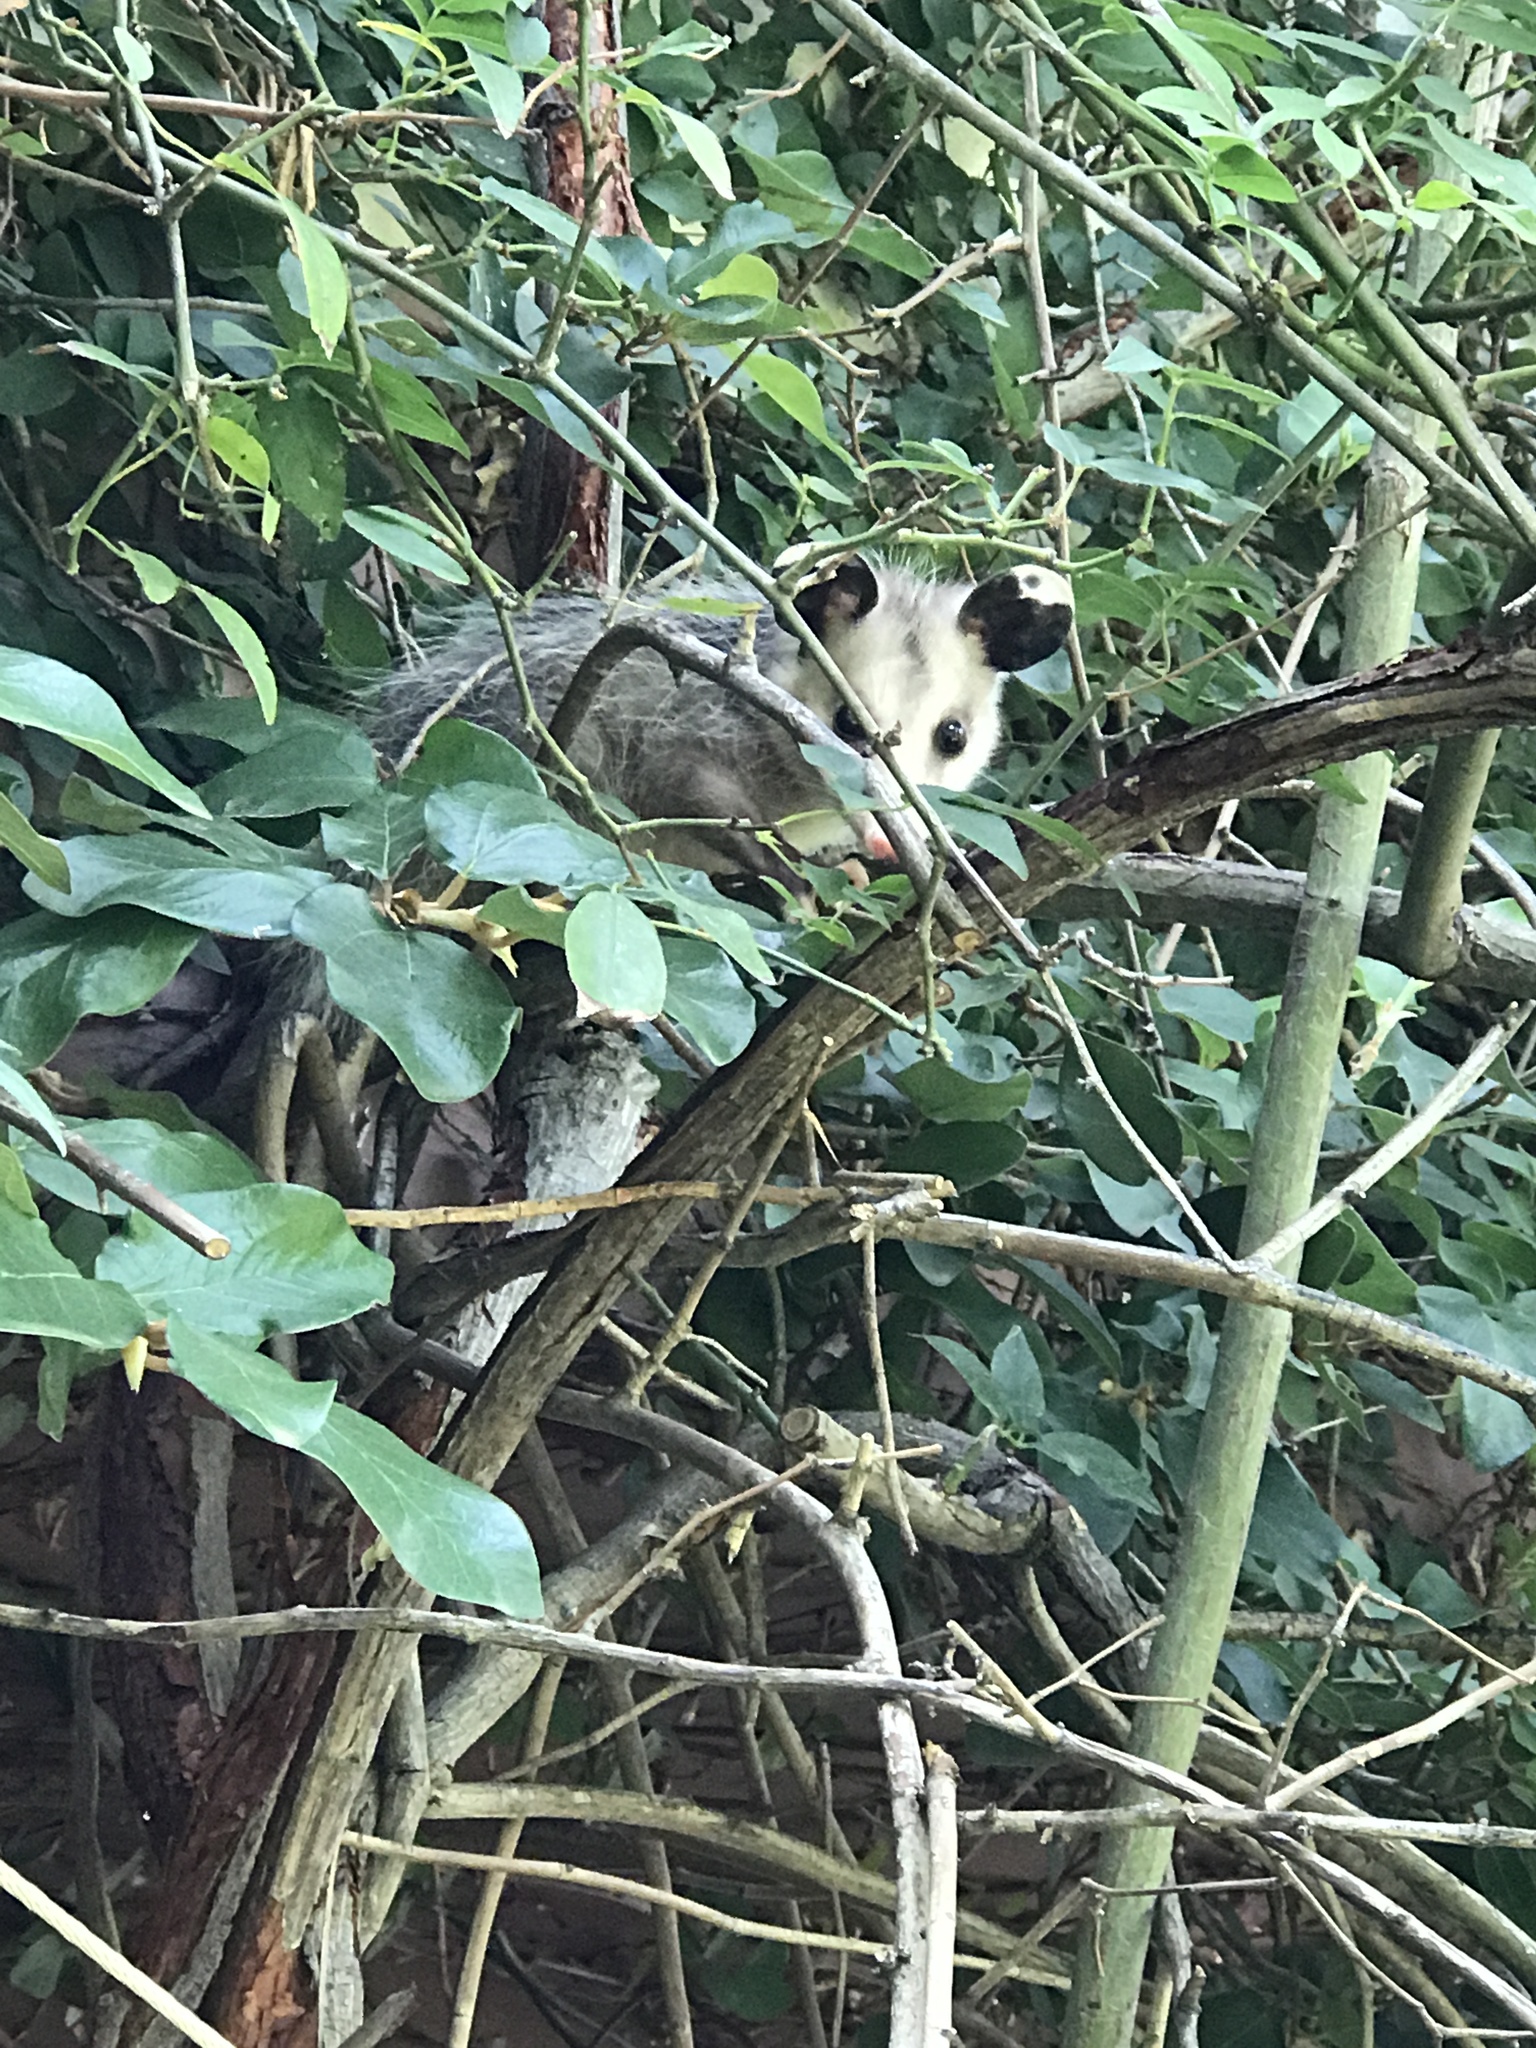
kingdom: Animalia
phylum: Chordata
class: Mammalia
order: Didelphimorphia
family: Didelphidae
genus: Didelphis
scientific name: Didelphis virginiana
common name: Virginia opossum
